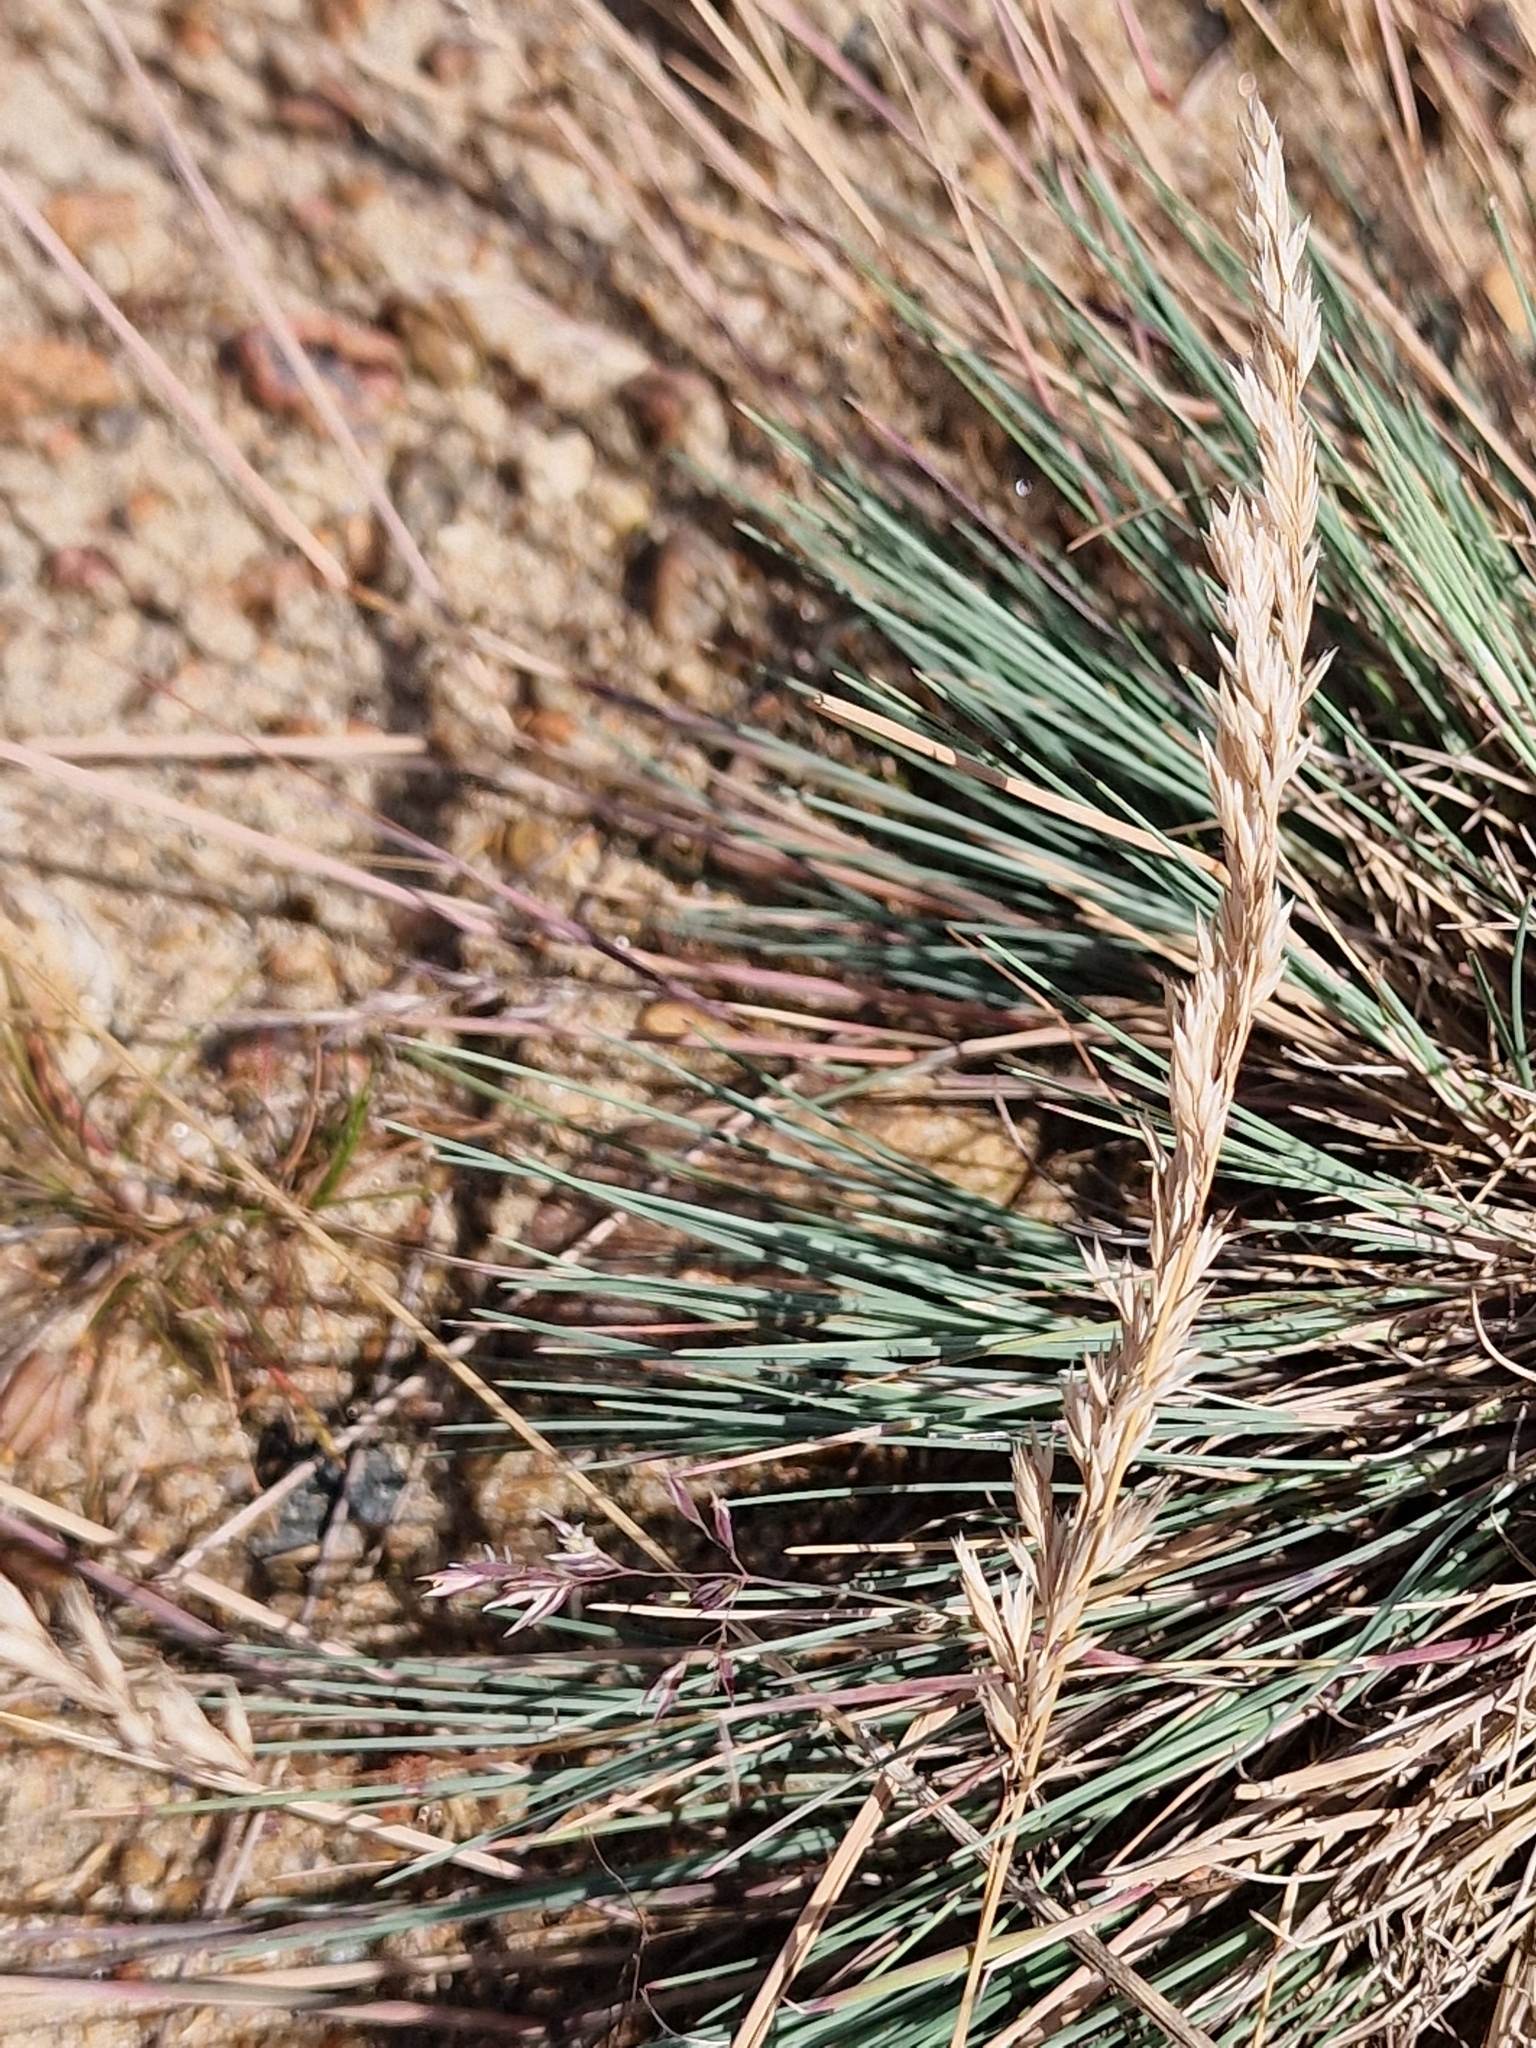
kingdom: Plantae
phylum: Tracheophyta
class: Liliopsida
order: Poales
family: Poaceae
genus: Corynephorus
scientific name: Corynephorus canescens
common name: Grey hair-grass
